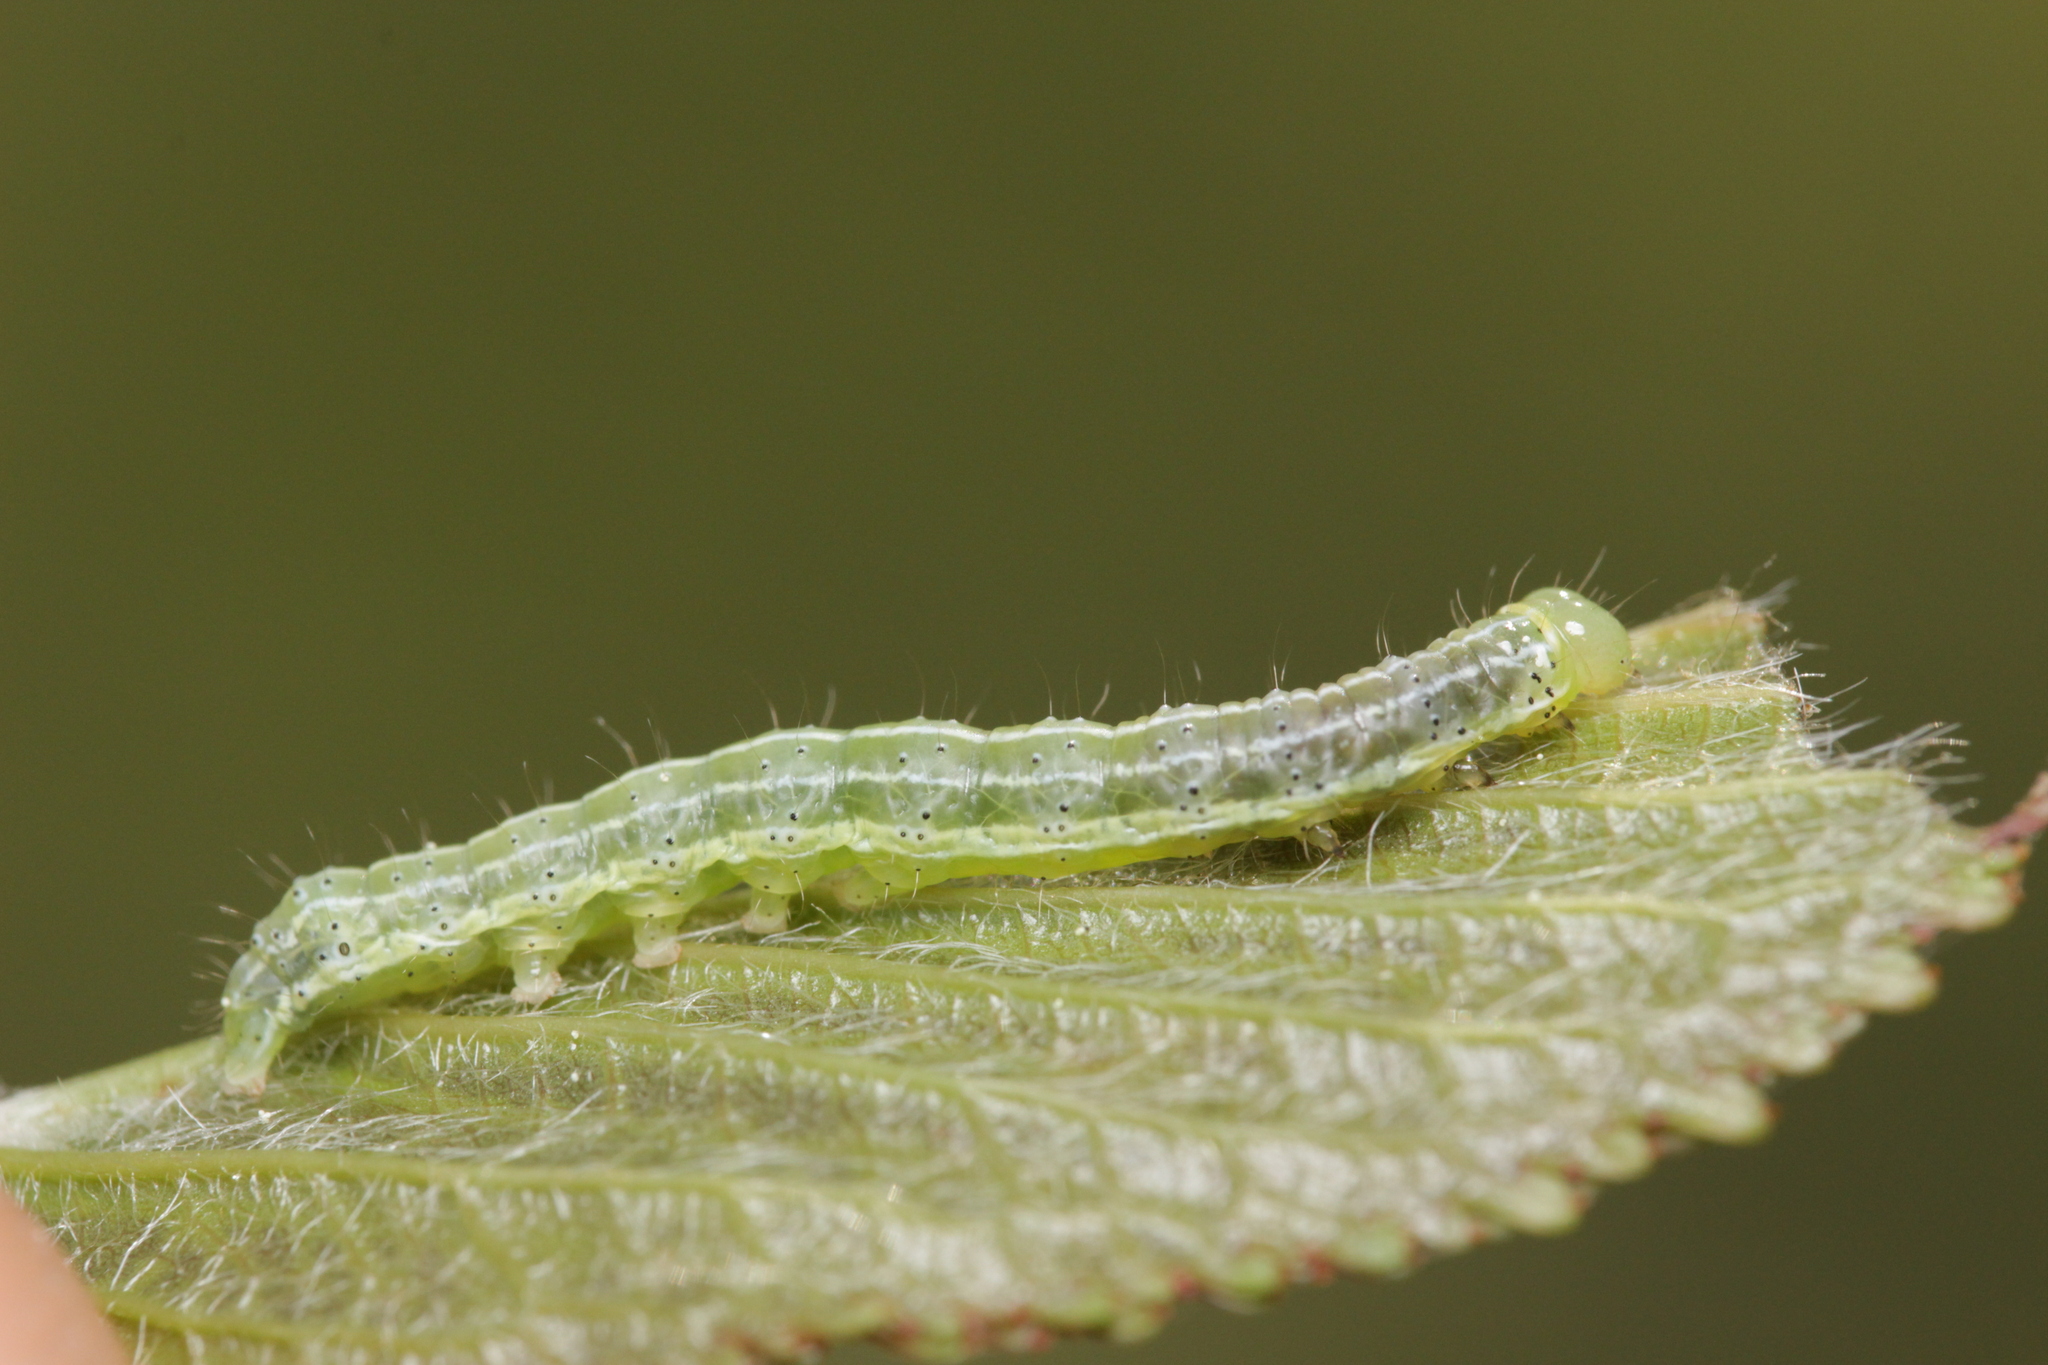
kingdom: Animalia
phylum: Arthropoda
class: Insecta
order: Lepidoptera
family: Noctuidae
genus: Cosmia
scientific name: Cosmia trapezina
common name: Dun-bar
